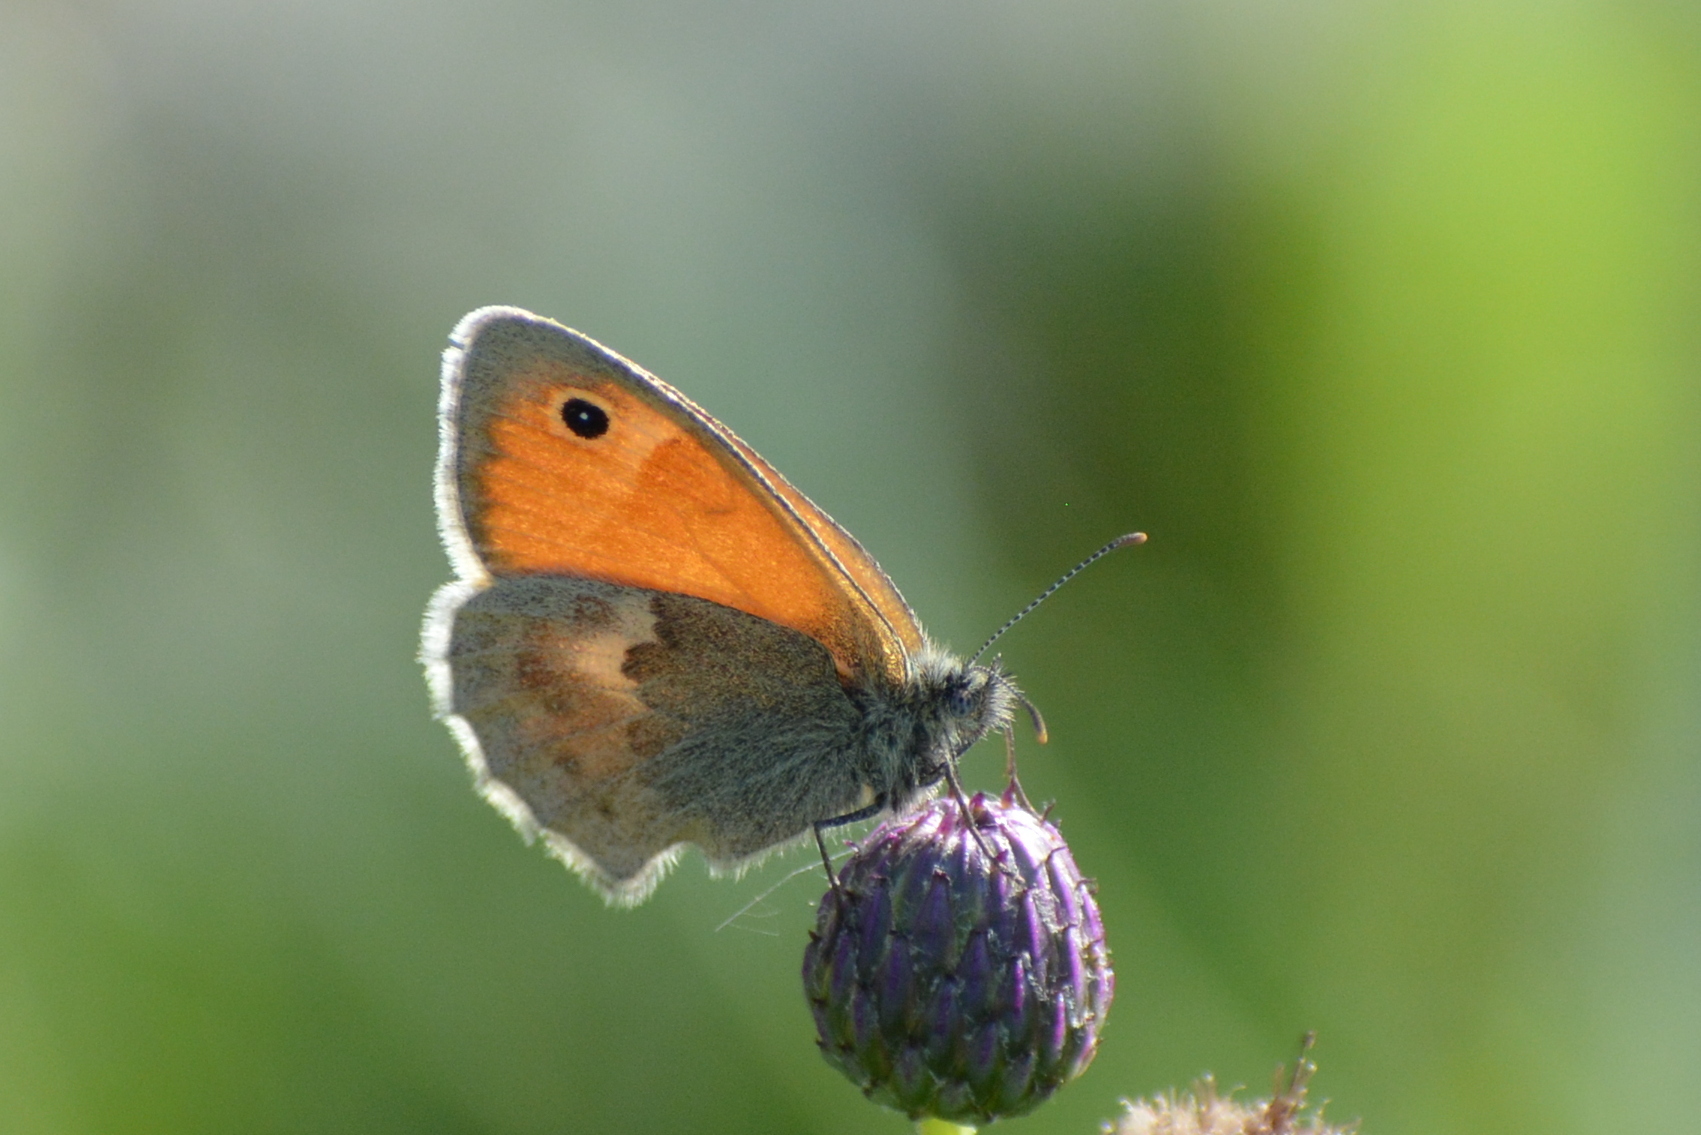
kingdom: Animalia
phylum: Arthropoda
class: Insecta
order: Lepidoptera
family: Nymphalidae
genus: Coenonympha
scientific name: Coenonympha pamphilus
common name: Small heath
